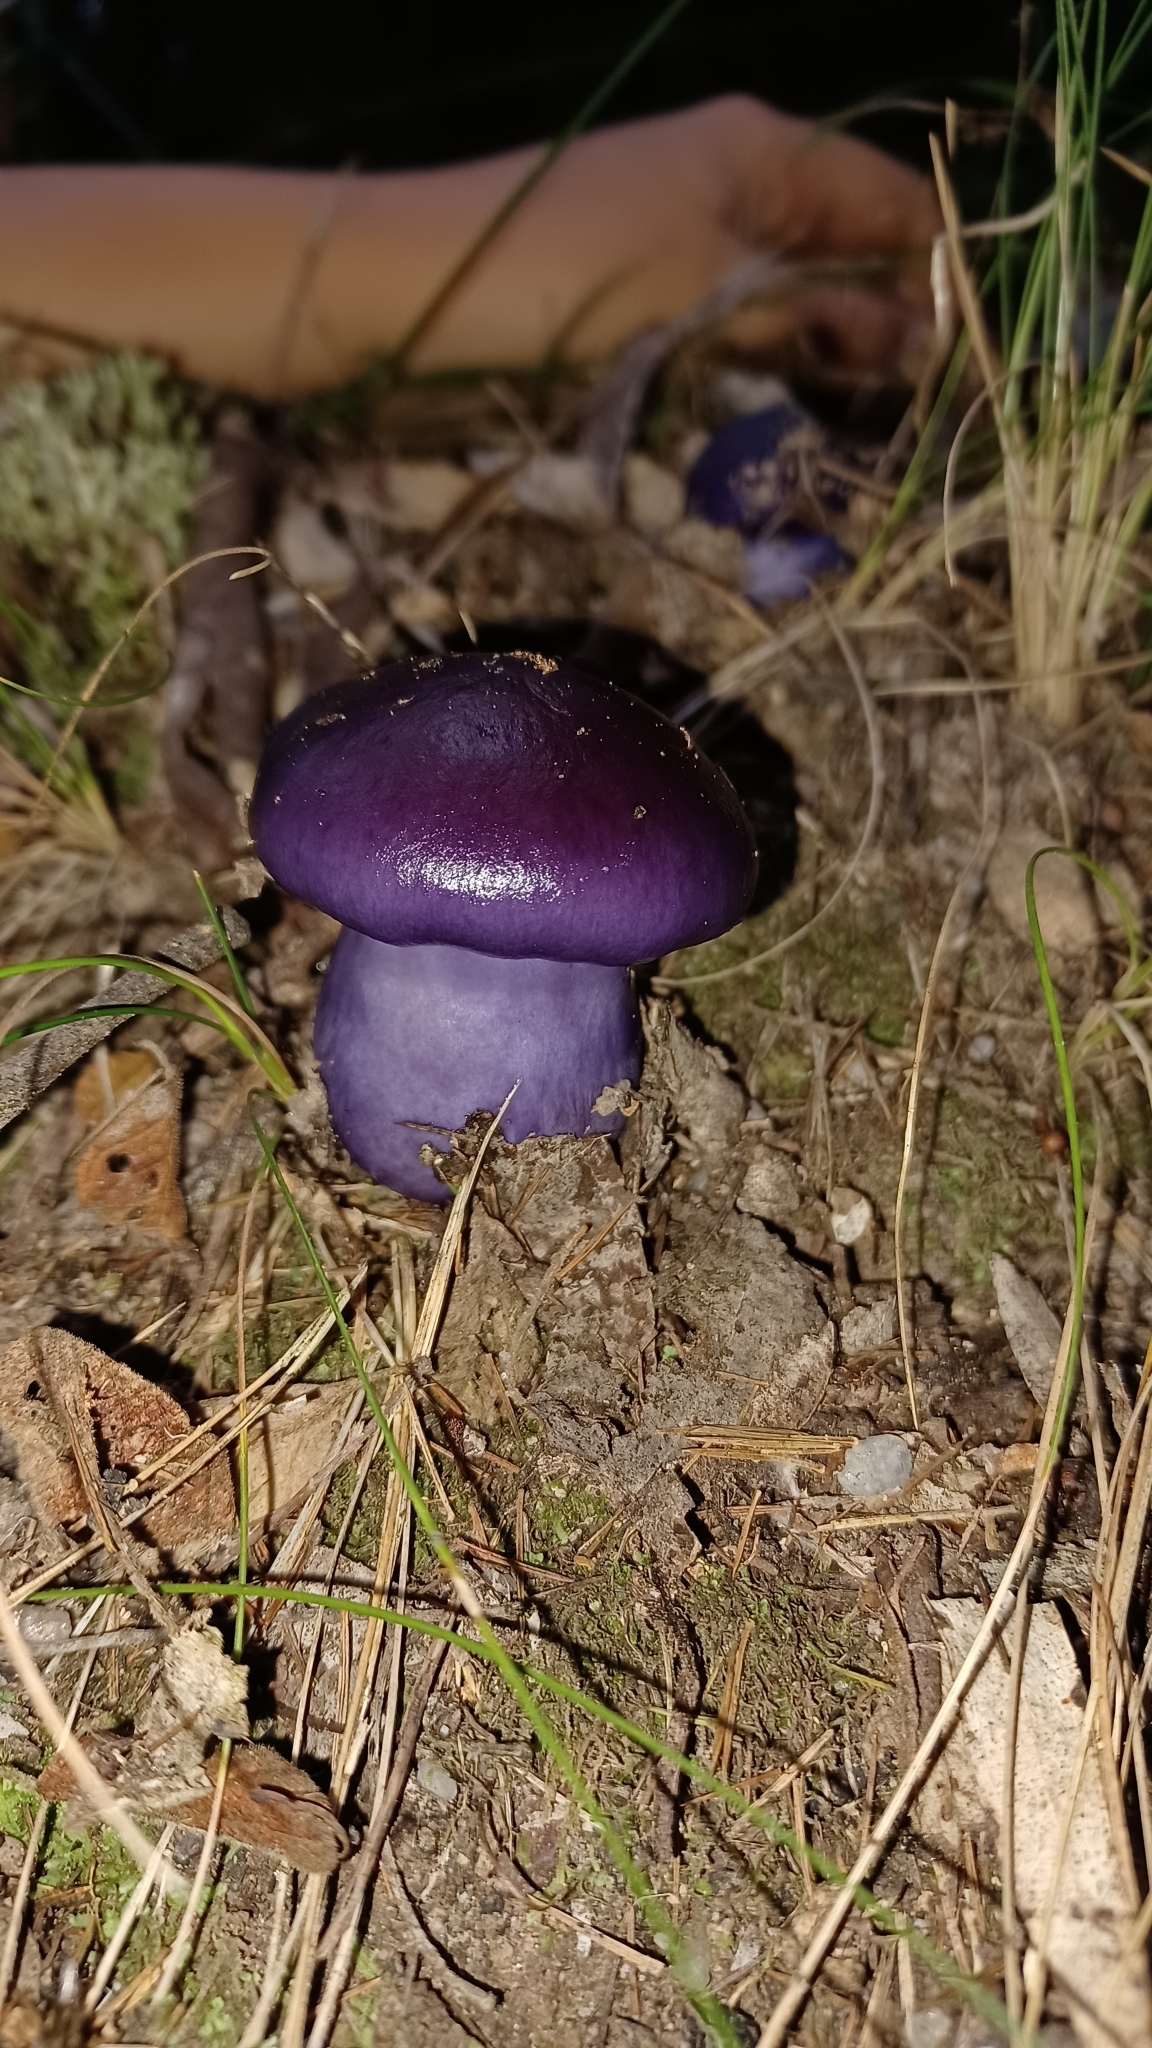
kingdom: Fungi
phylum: Basidiomycota
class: Agaricomycetes
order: Agaricales
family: Cortinariaceae
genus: Cortinarius
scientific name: Cortinarius archeri
